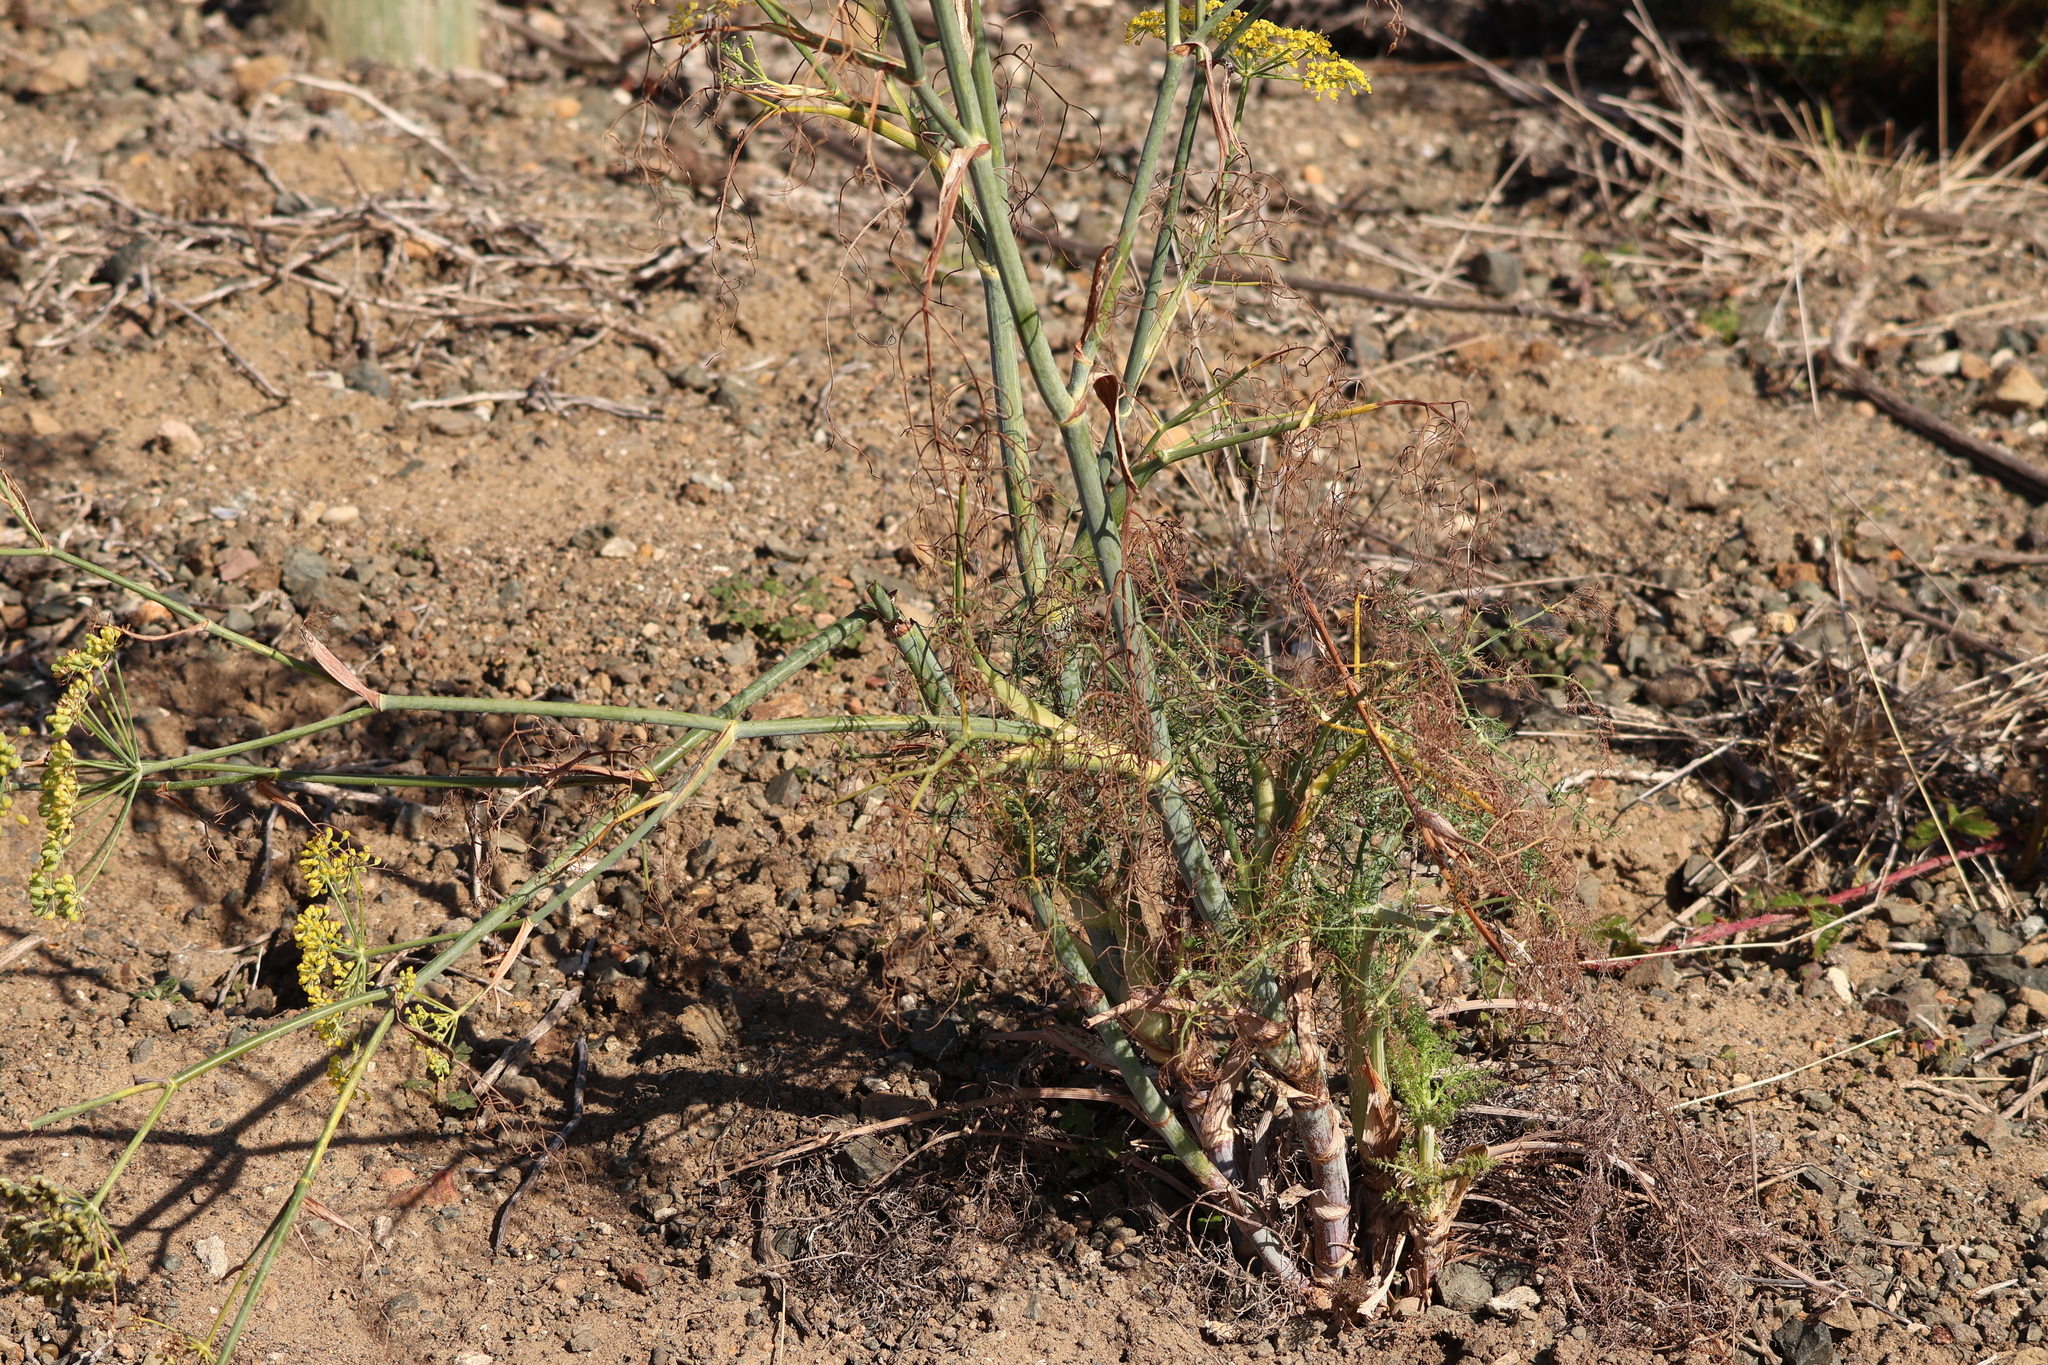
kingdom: Plantae
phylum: Tracheophyta
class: Magnoliopsida
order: Apiales
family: Apiaceae
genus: Foeniculum
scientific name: Foeniculum vulgare
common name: Fennel
